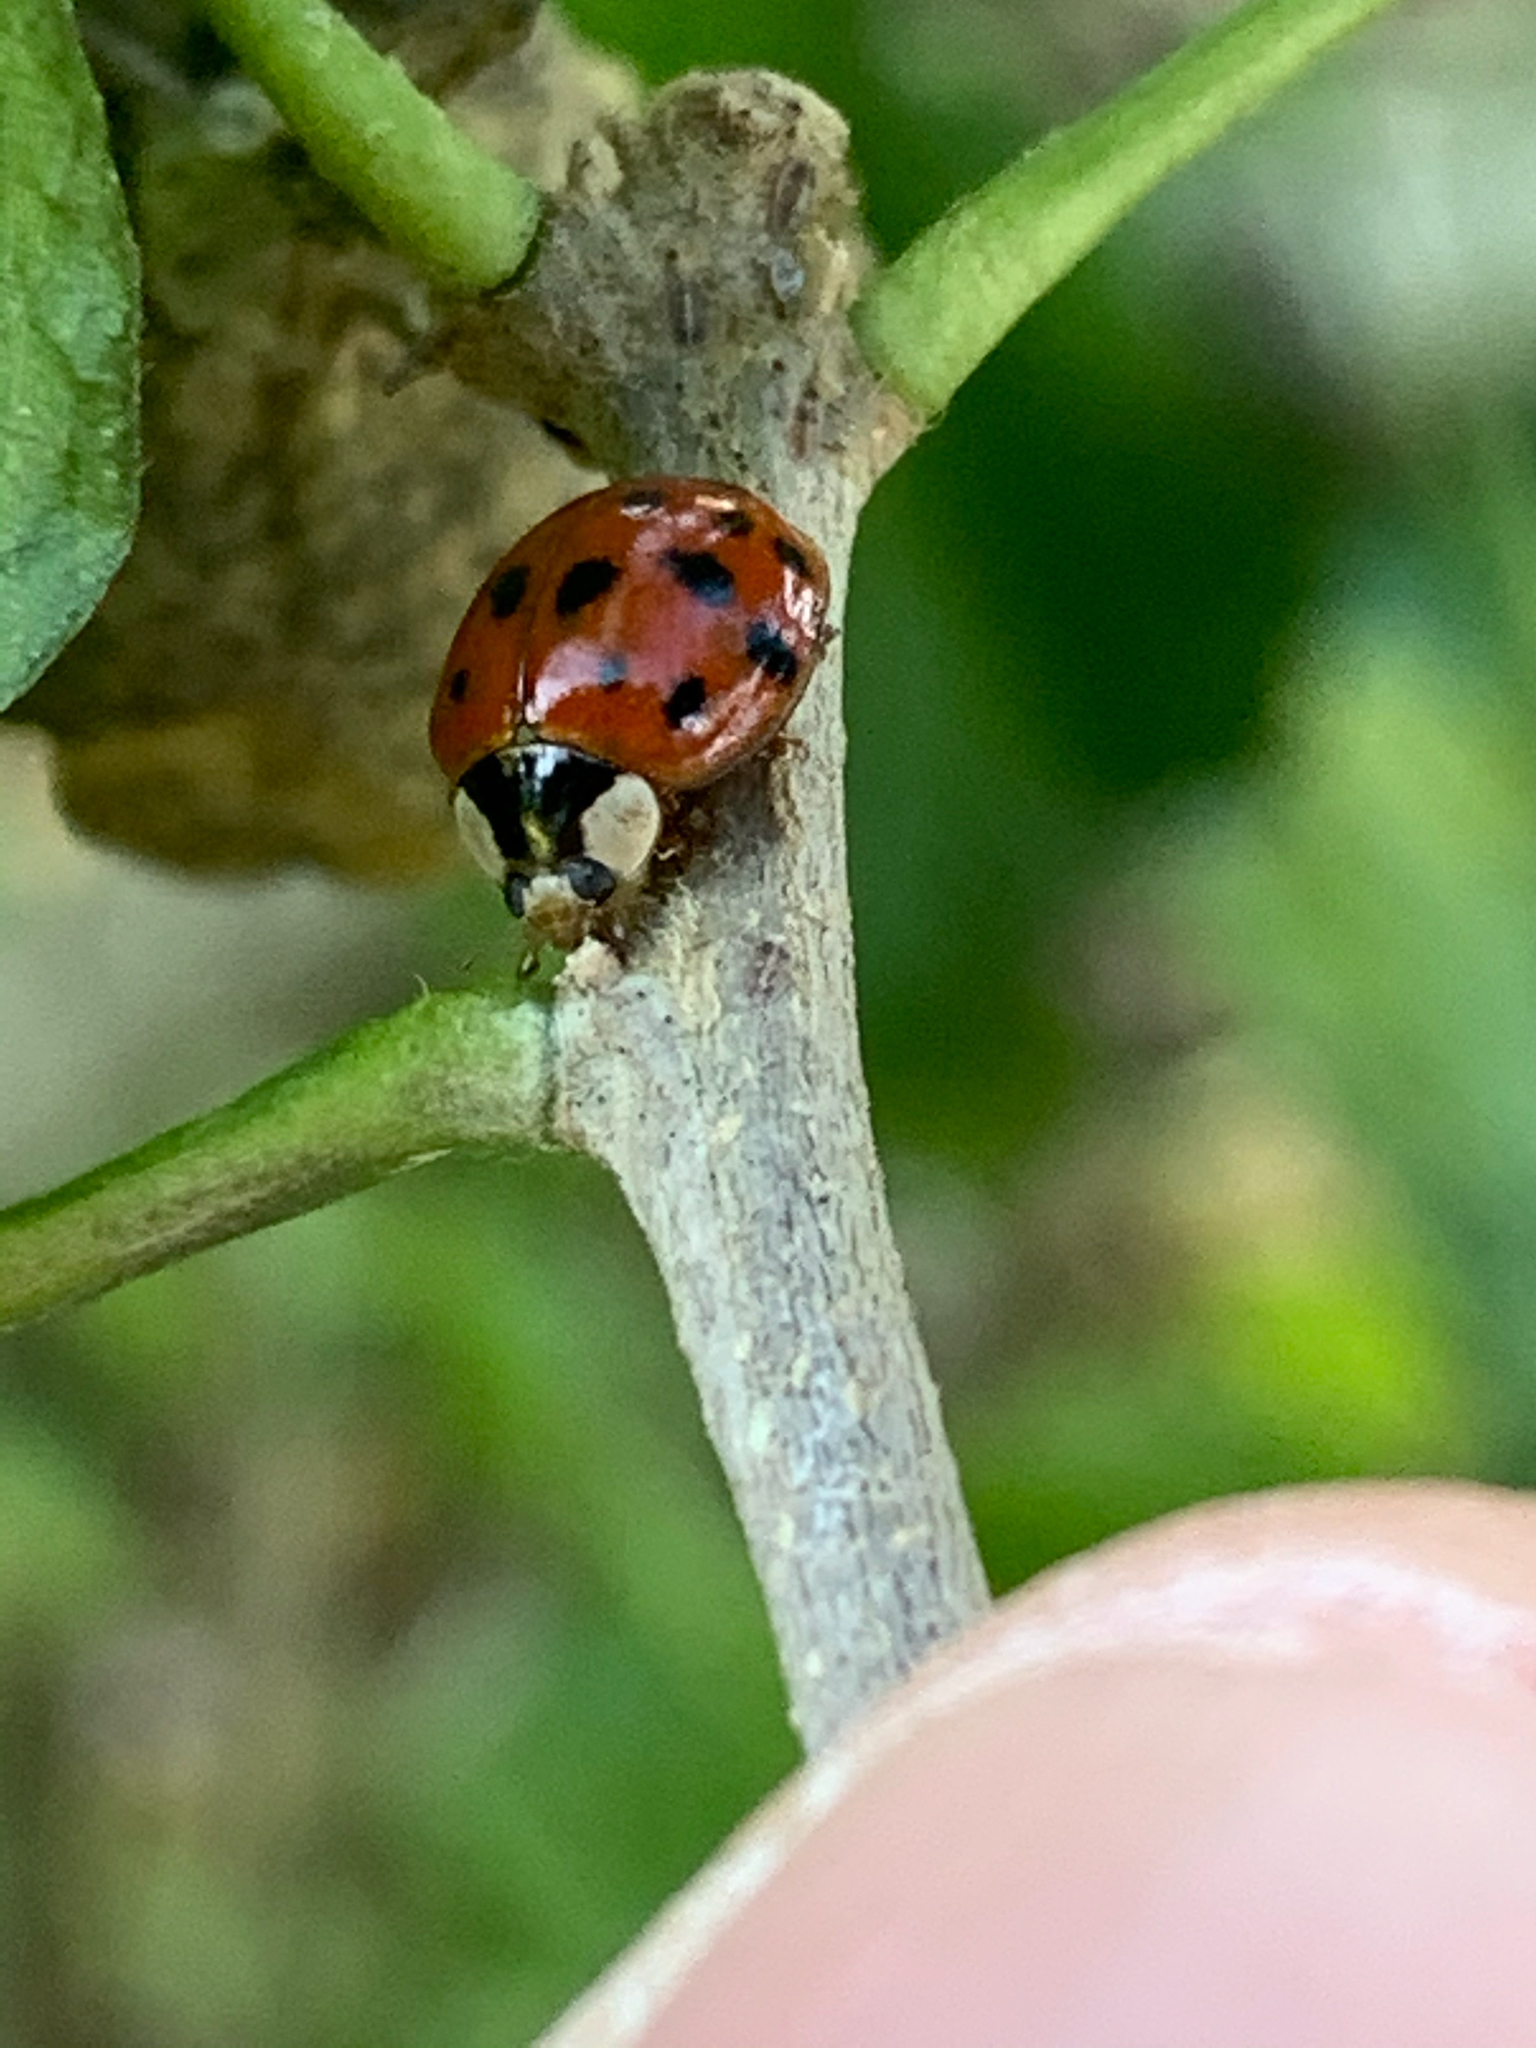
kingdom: Animalia
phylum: Arthropoda
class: Insecta
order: Coleoptera
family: Coccinellidae
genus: Harmonia
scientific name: Harmonia axyridis
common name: Harlequin ladybird
